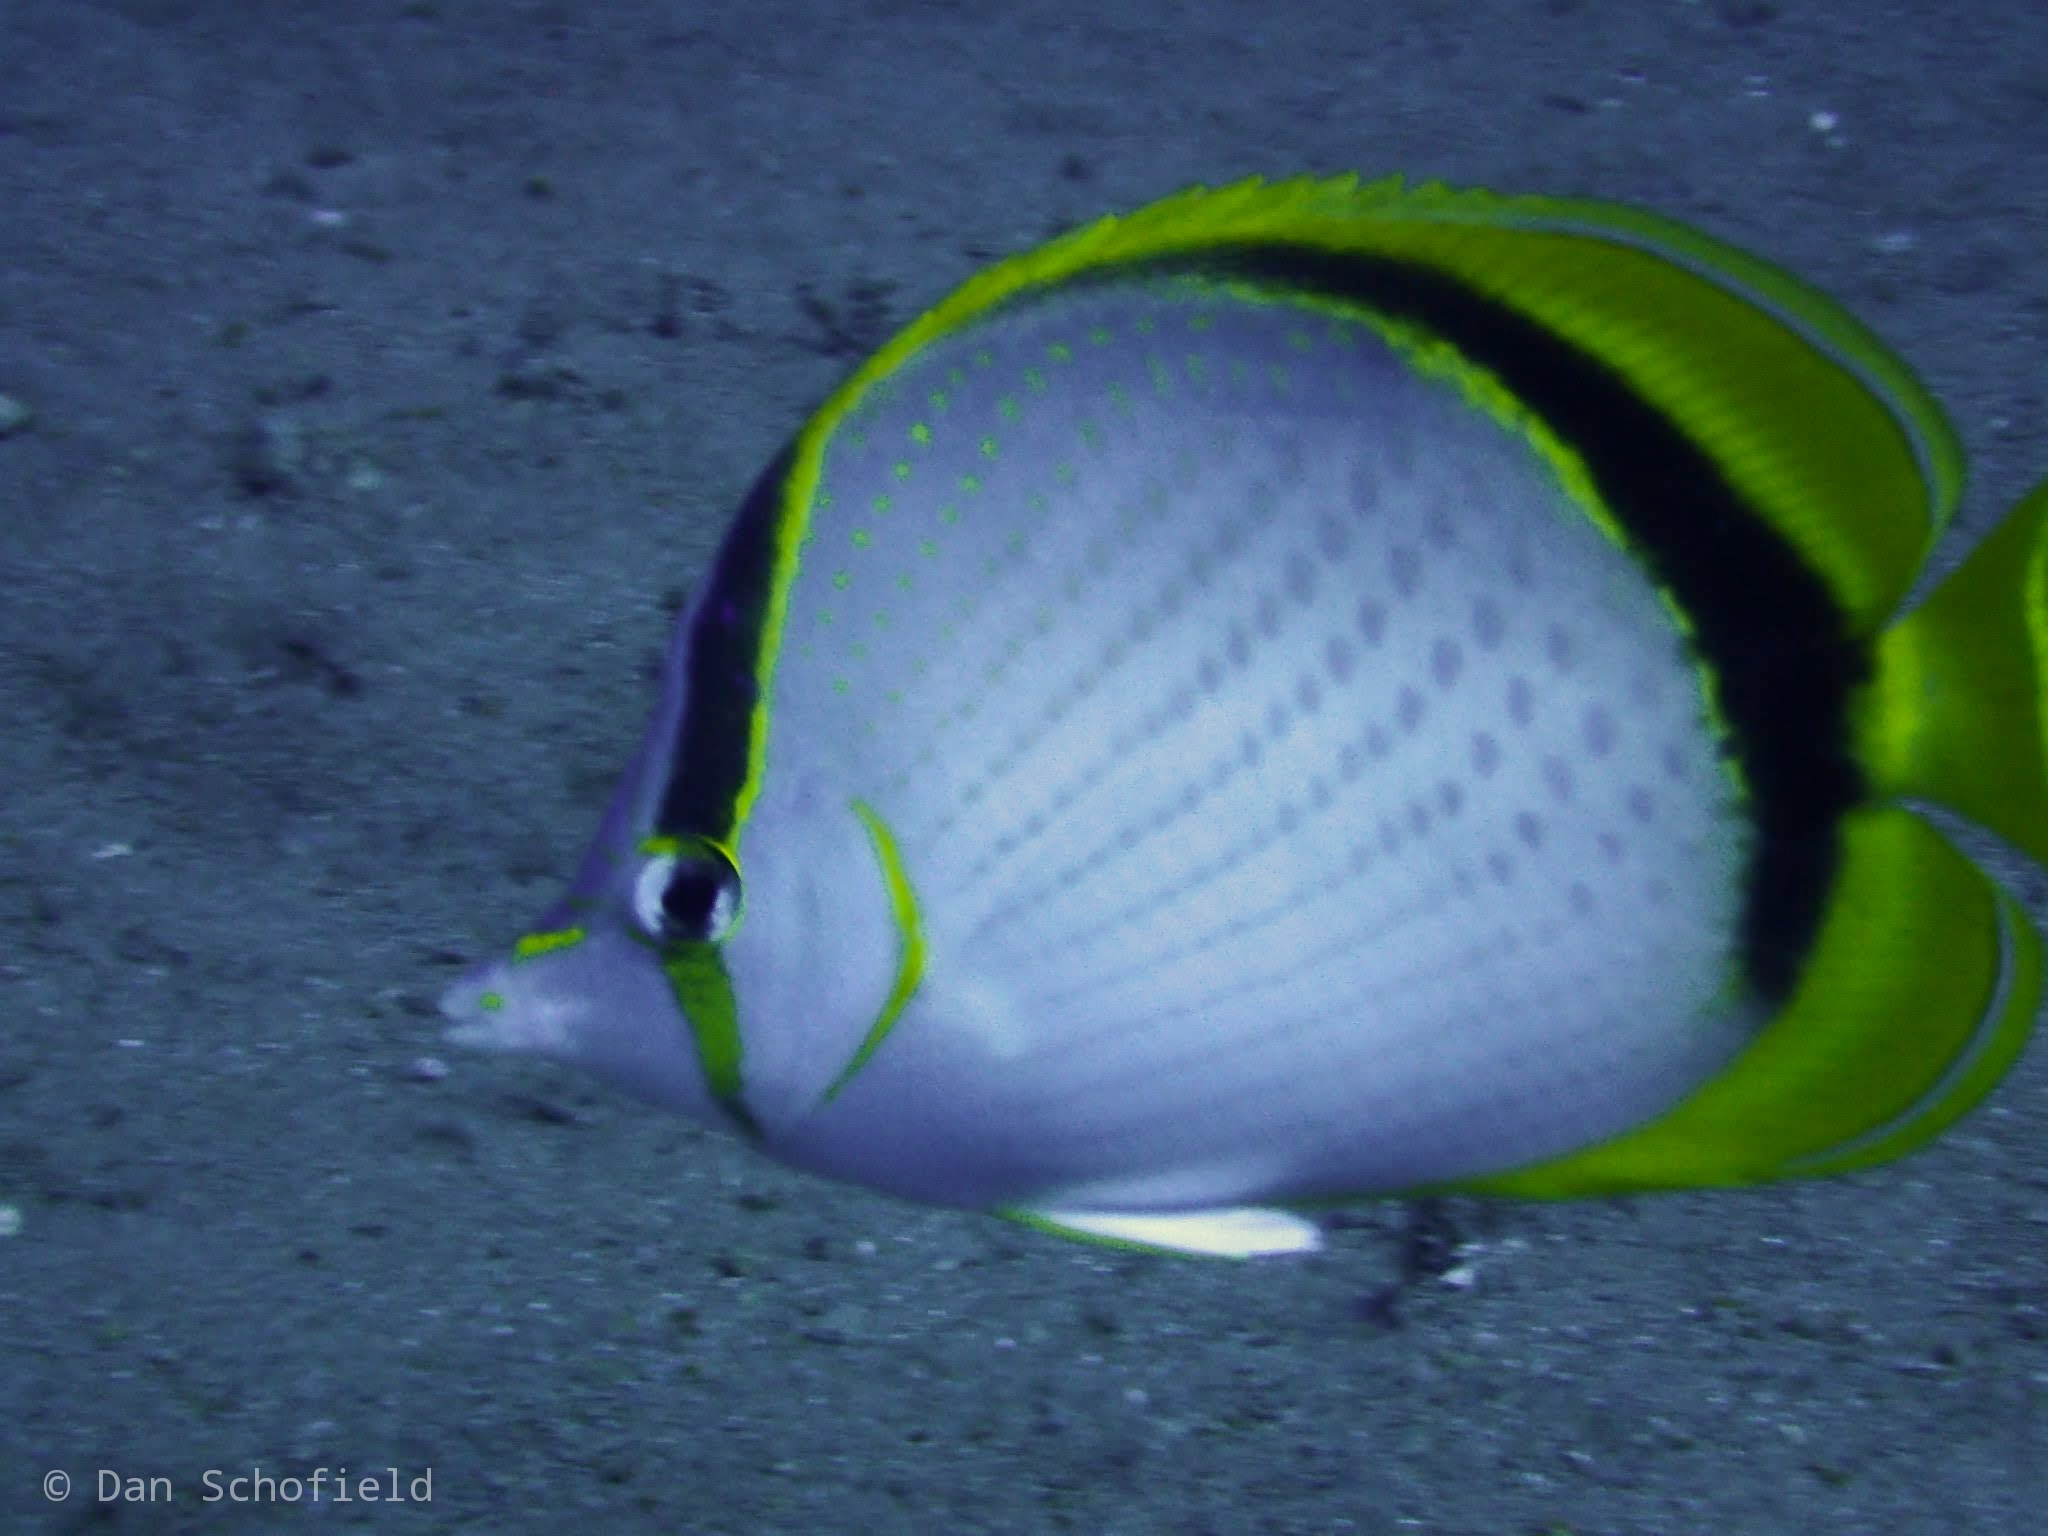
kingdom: Animalia
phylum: Chordata
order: Perciformes
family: Chaetodontidae
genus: Chaetodon
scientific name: Chaetodon selene
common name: Yellow-dotted butterflyfish
